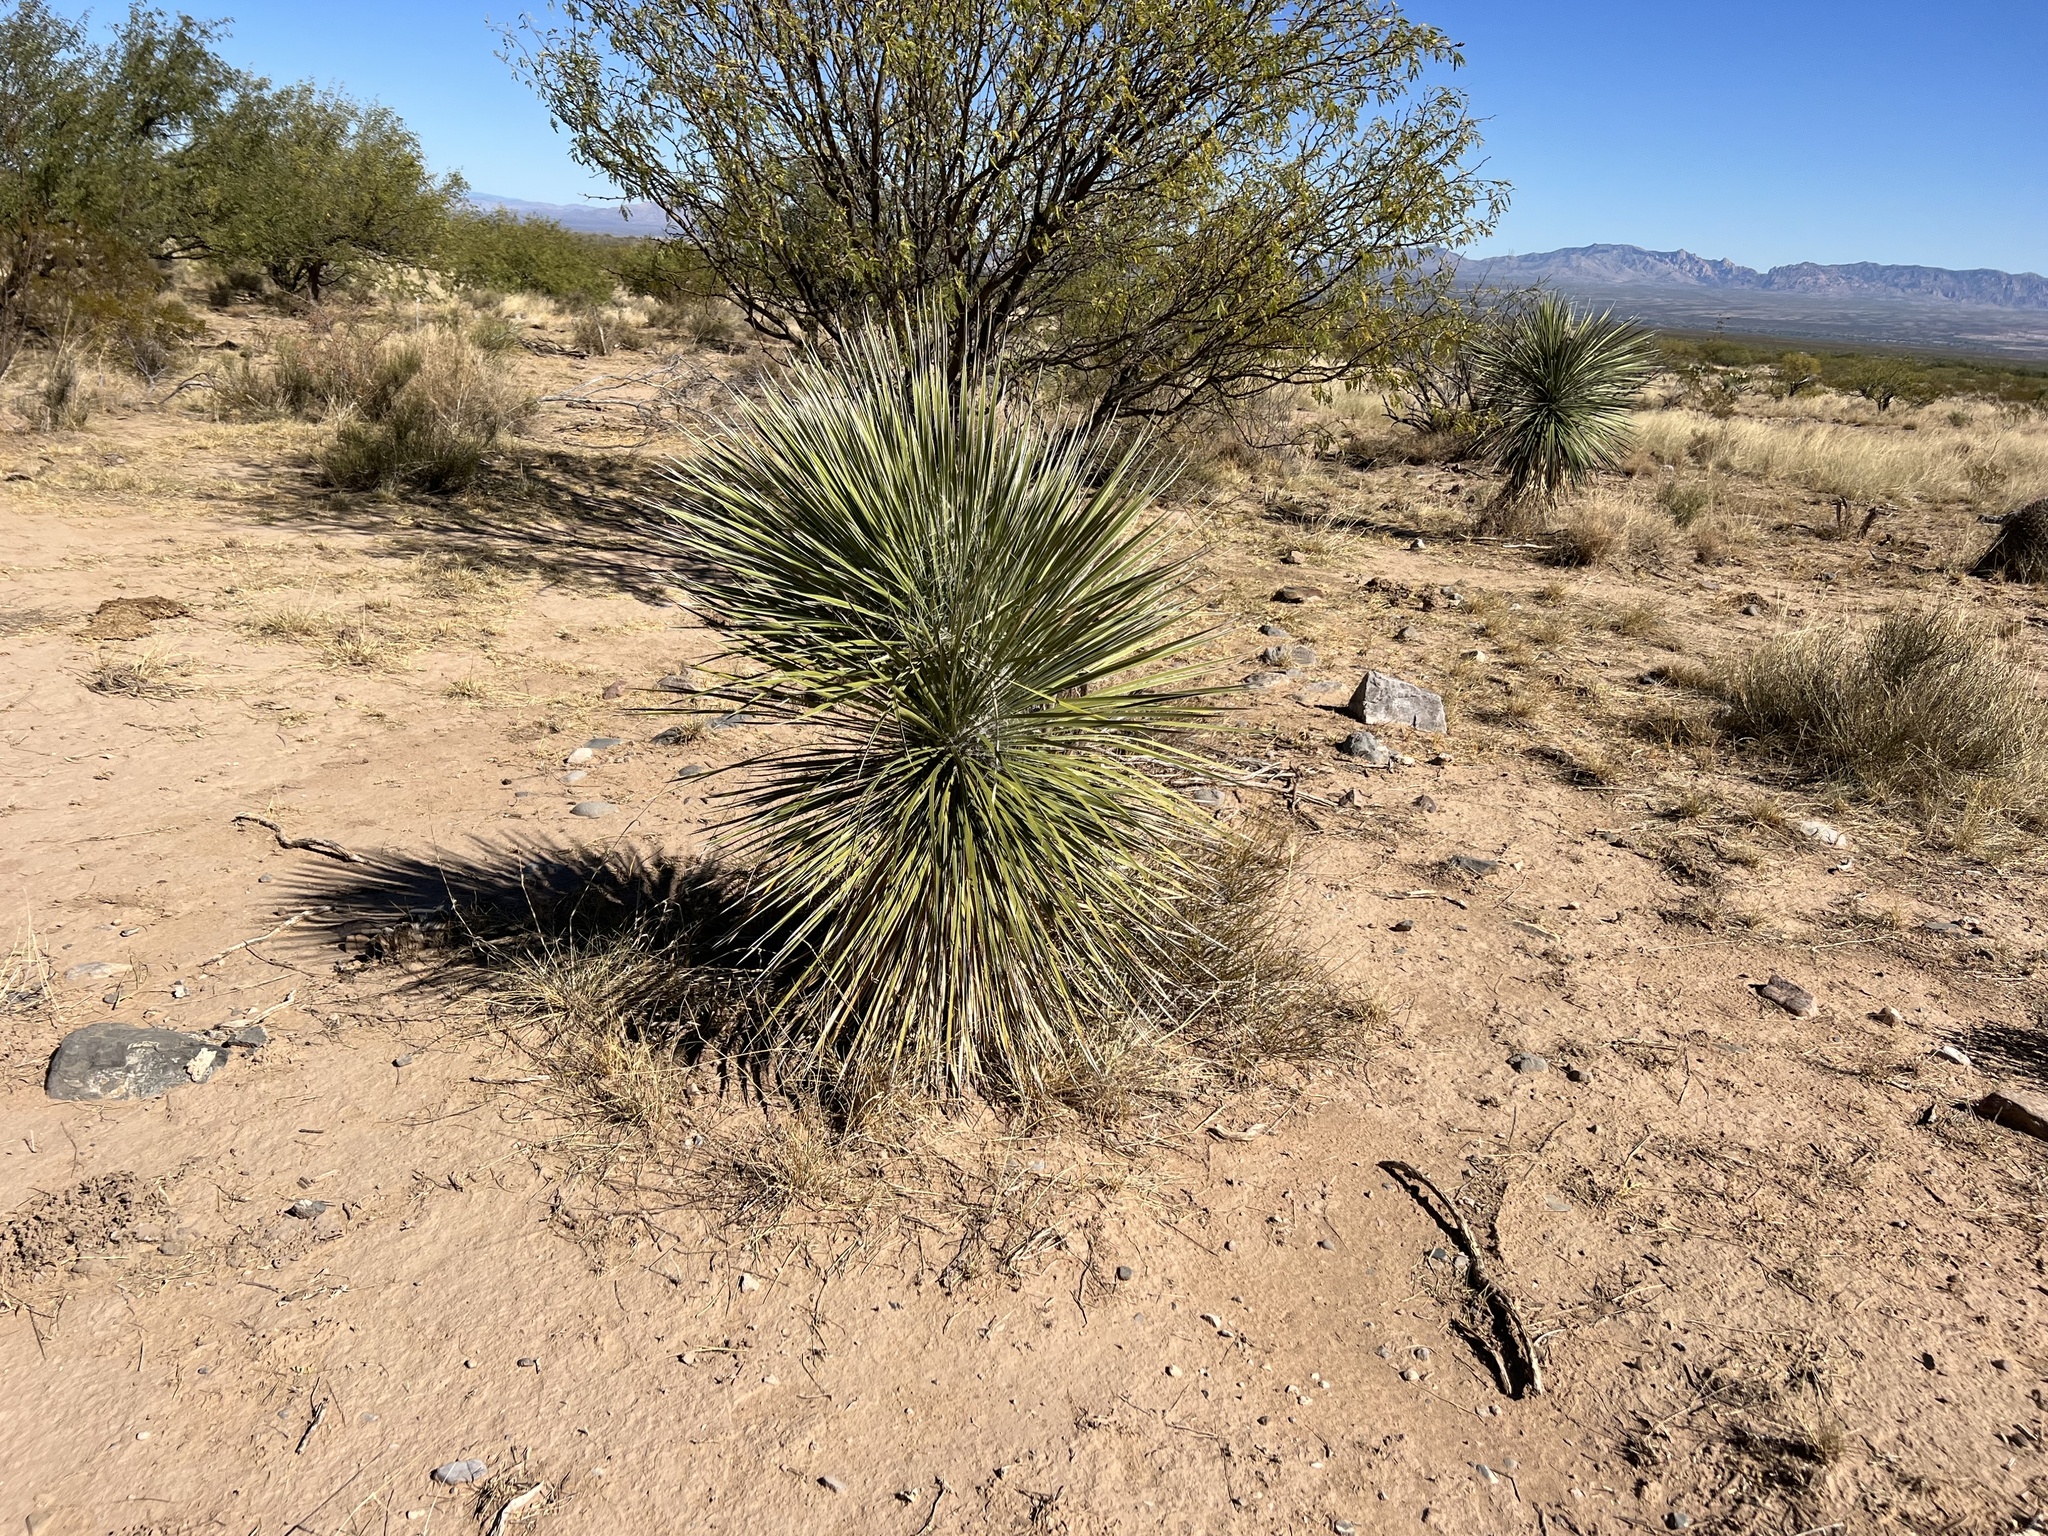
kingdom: Plantae
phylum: Tracheophyta
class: Liliopsida
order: Asparagales
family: Asparagaceae
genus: Yucca
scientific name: Yucca elata
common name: Palmella
